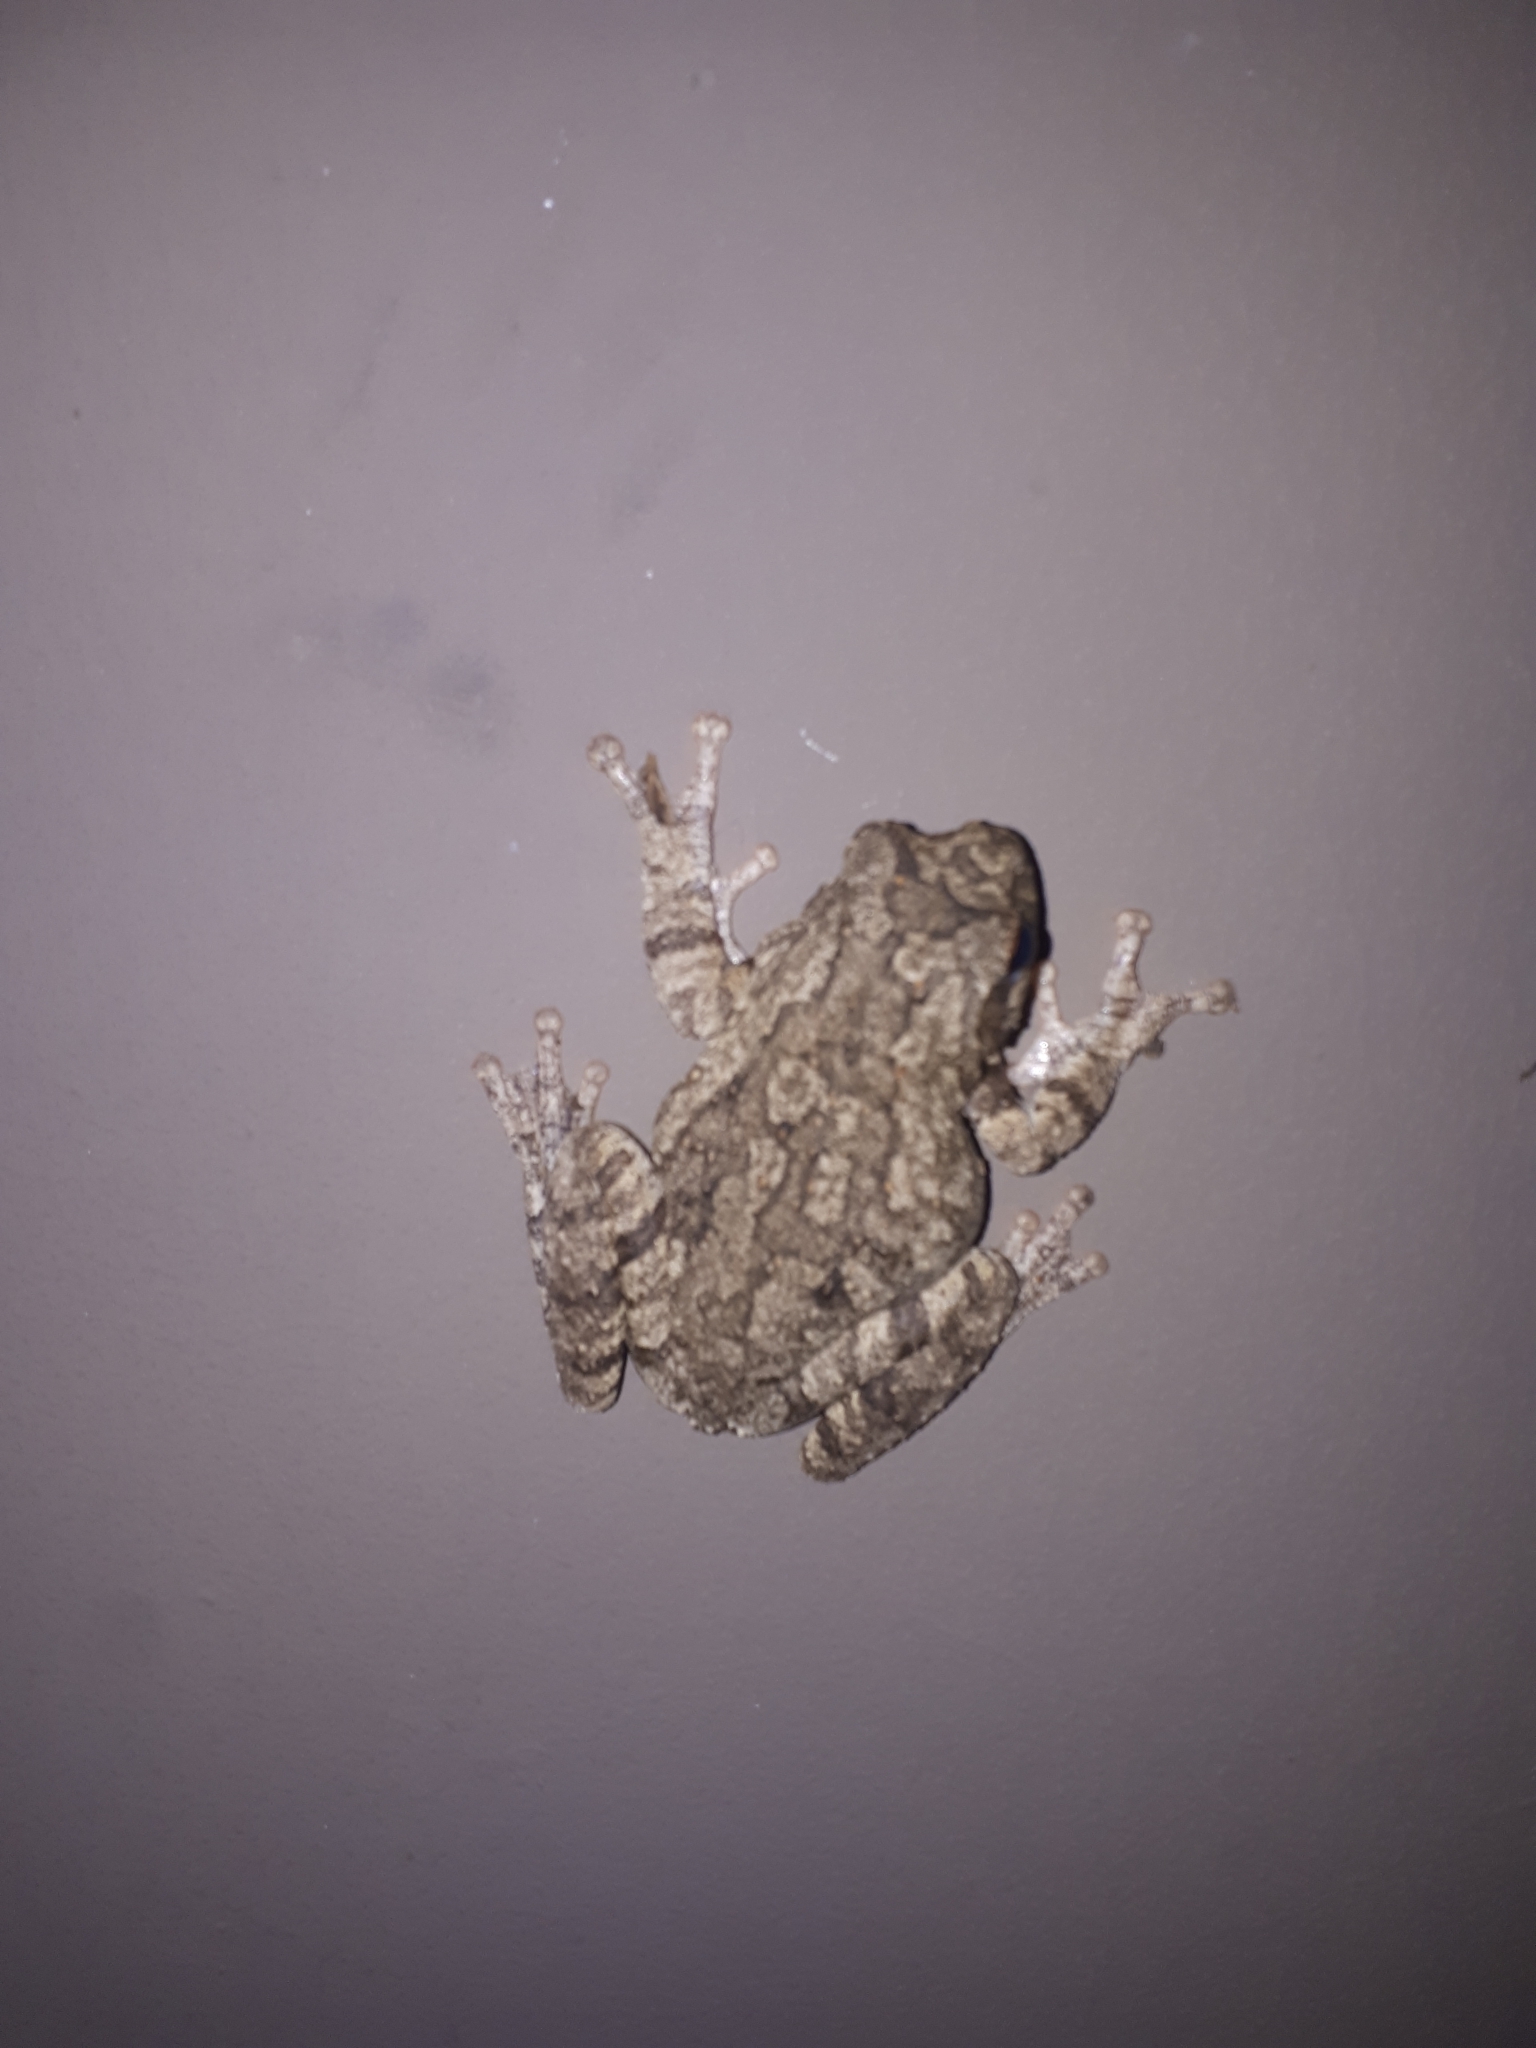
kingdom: Animalia
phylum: Chordata
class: Amphibia
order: Anura
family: Rhacophoridae
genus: Chiromantis
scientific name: Chiromantis xerampelina
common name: African gray treefrog
